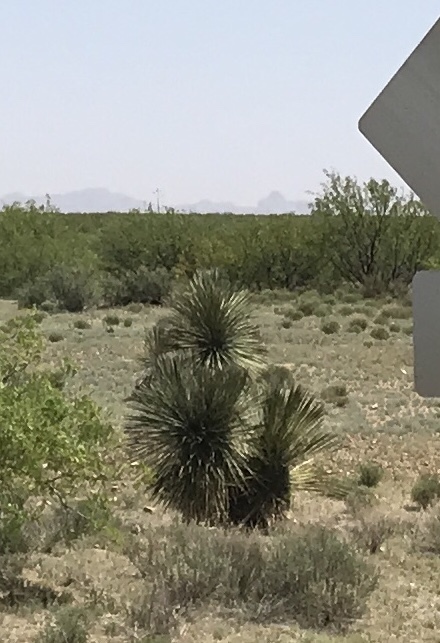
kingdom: Plantae
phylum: Tracheophyta
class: Liliopsida
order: Asparagales
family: Asparagaceae
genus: Yucca
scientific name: Yucca elata
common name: Palmella
